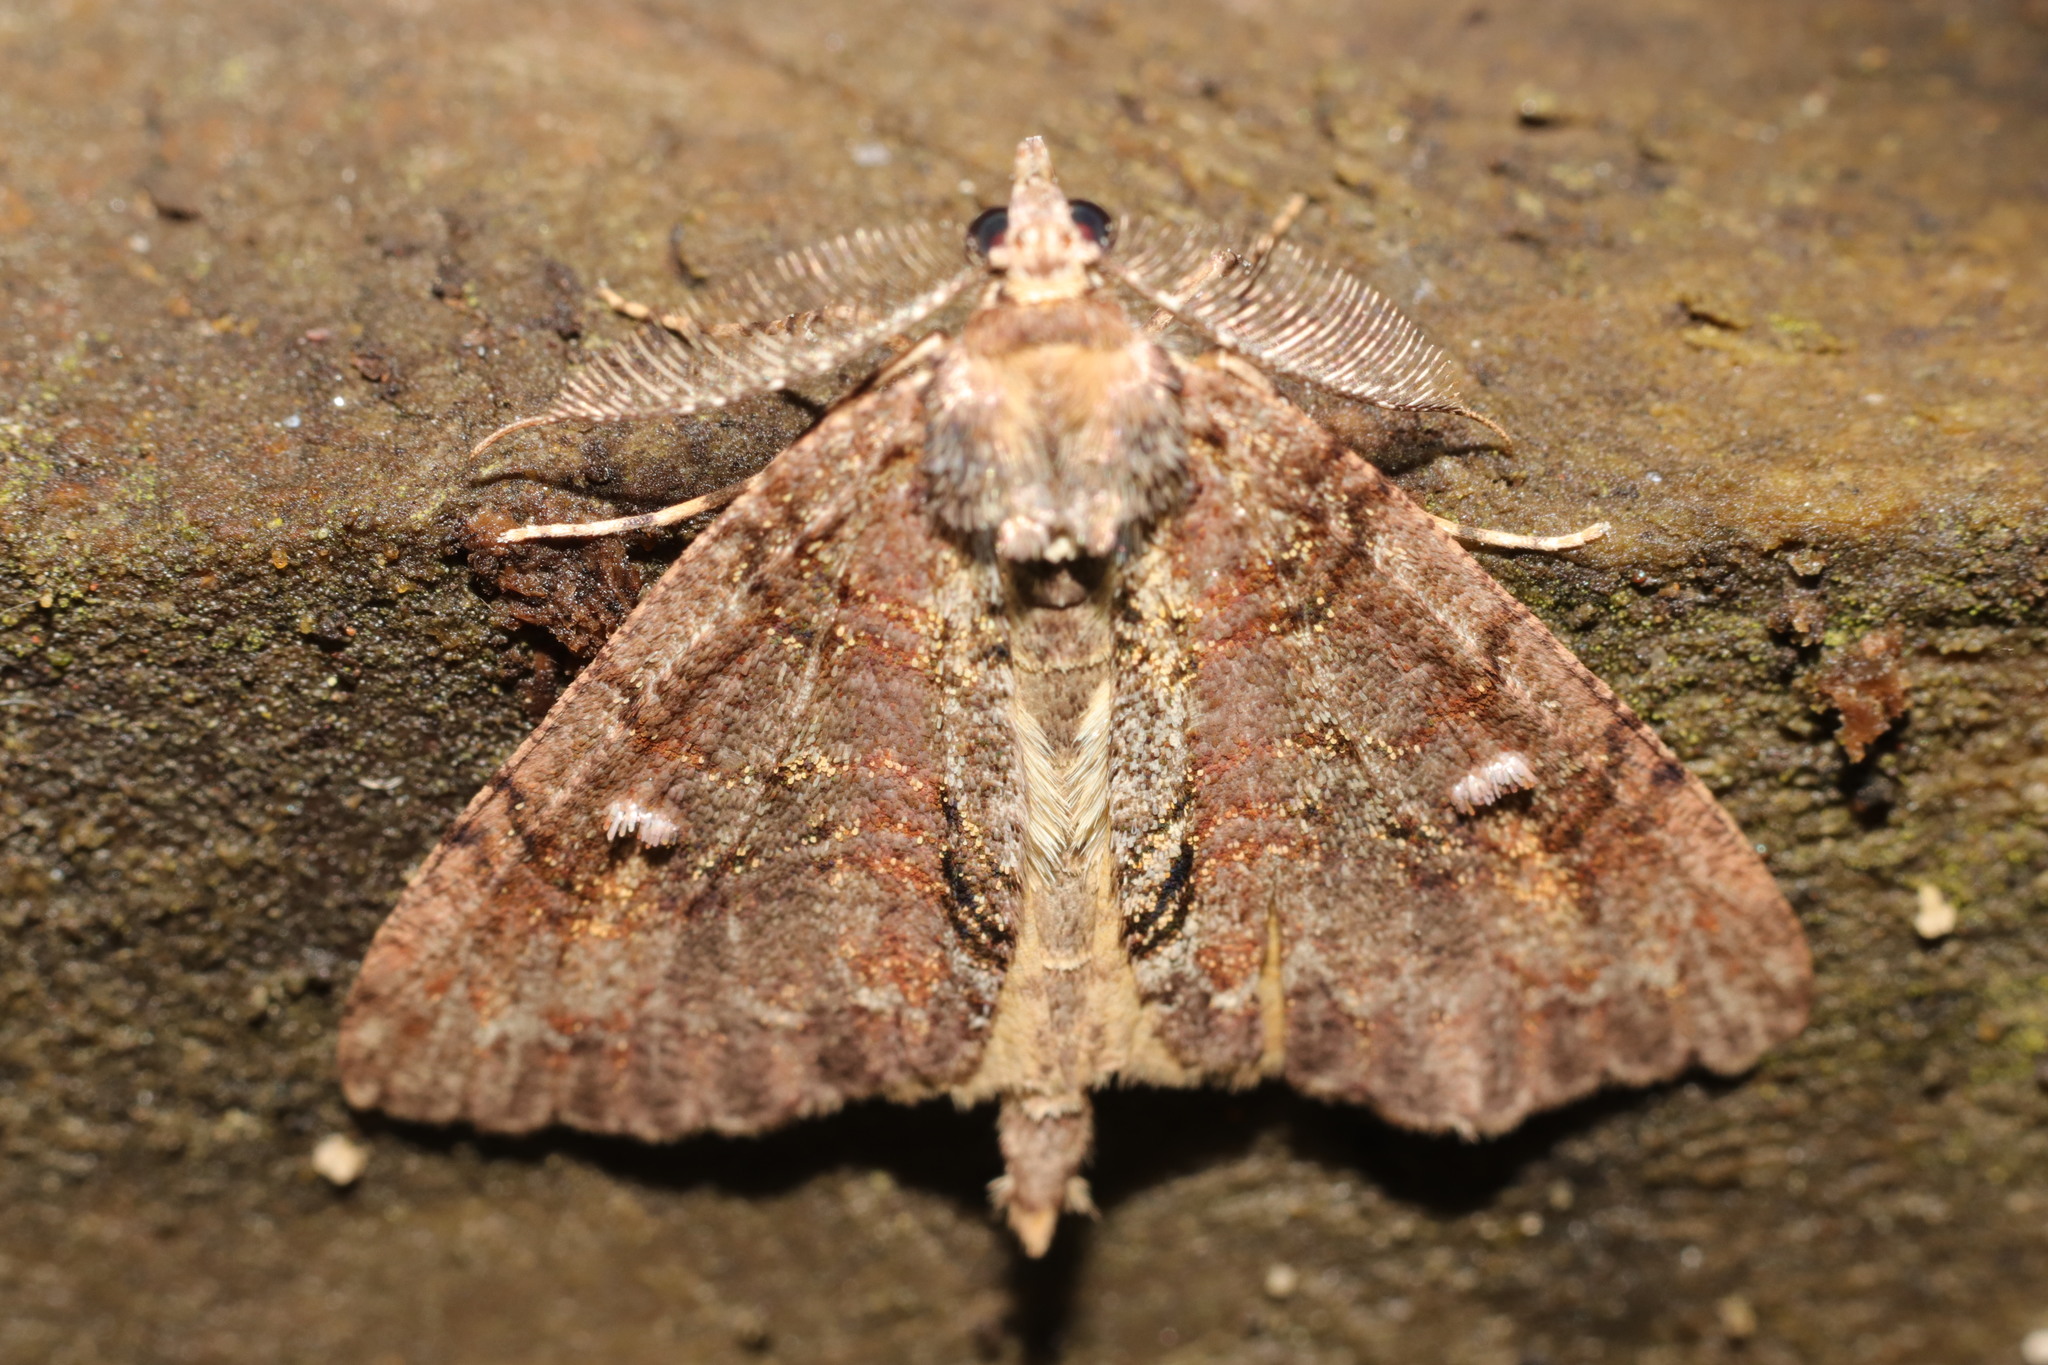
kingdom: Animalia
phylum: Arthropoda
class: Insecta
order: Lepidoptera
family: Geometridae
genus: Pseudocoremia
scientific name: Pseudocoremia suavis
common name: Common forest looper
